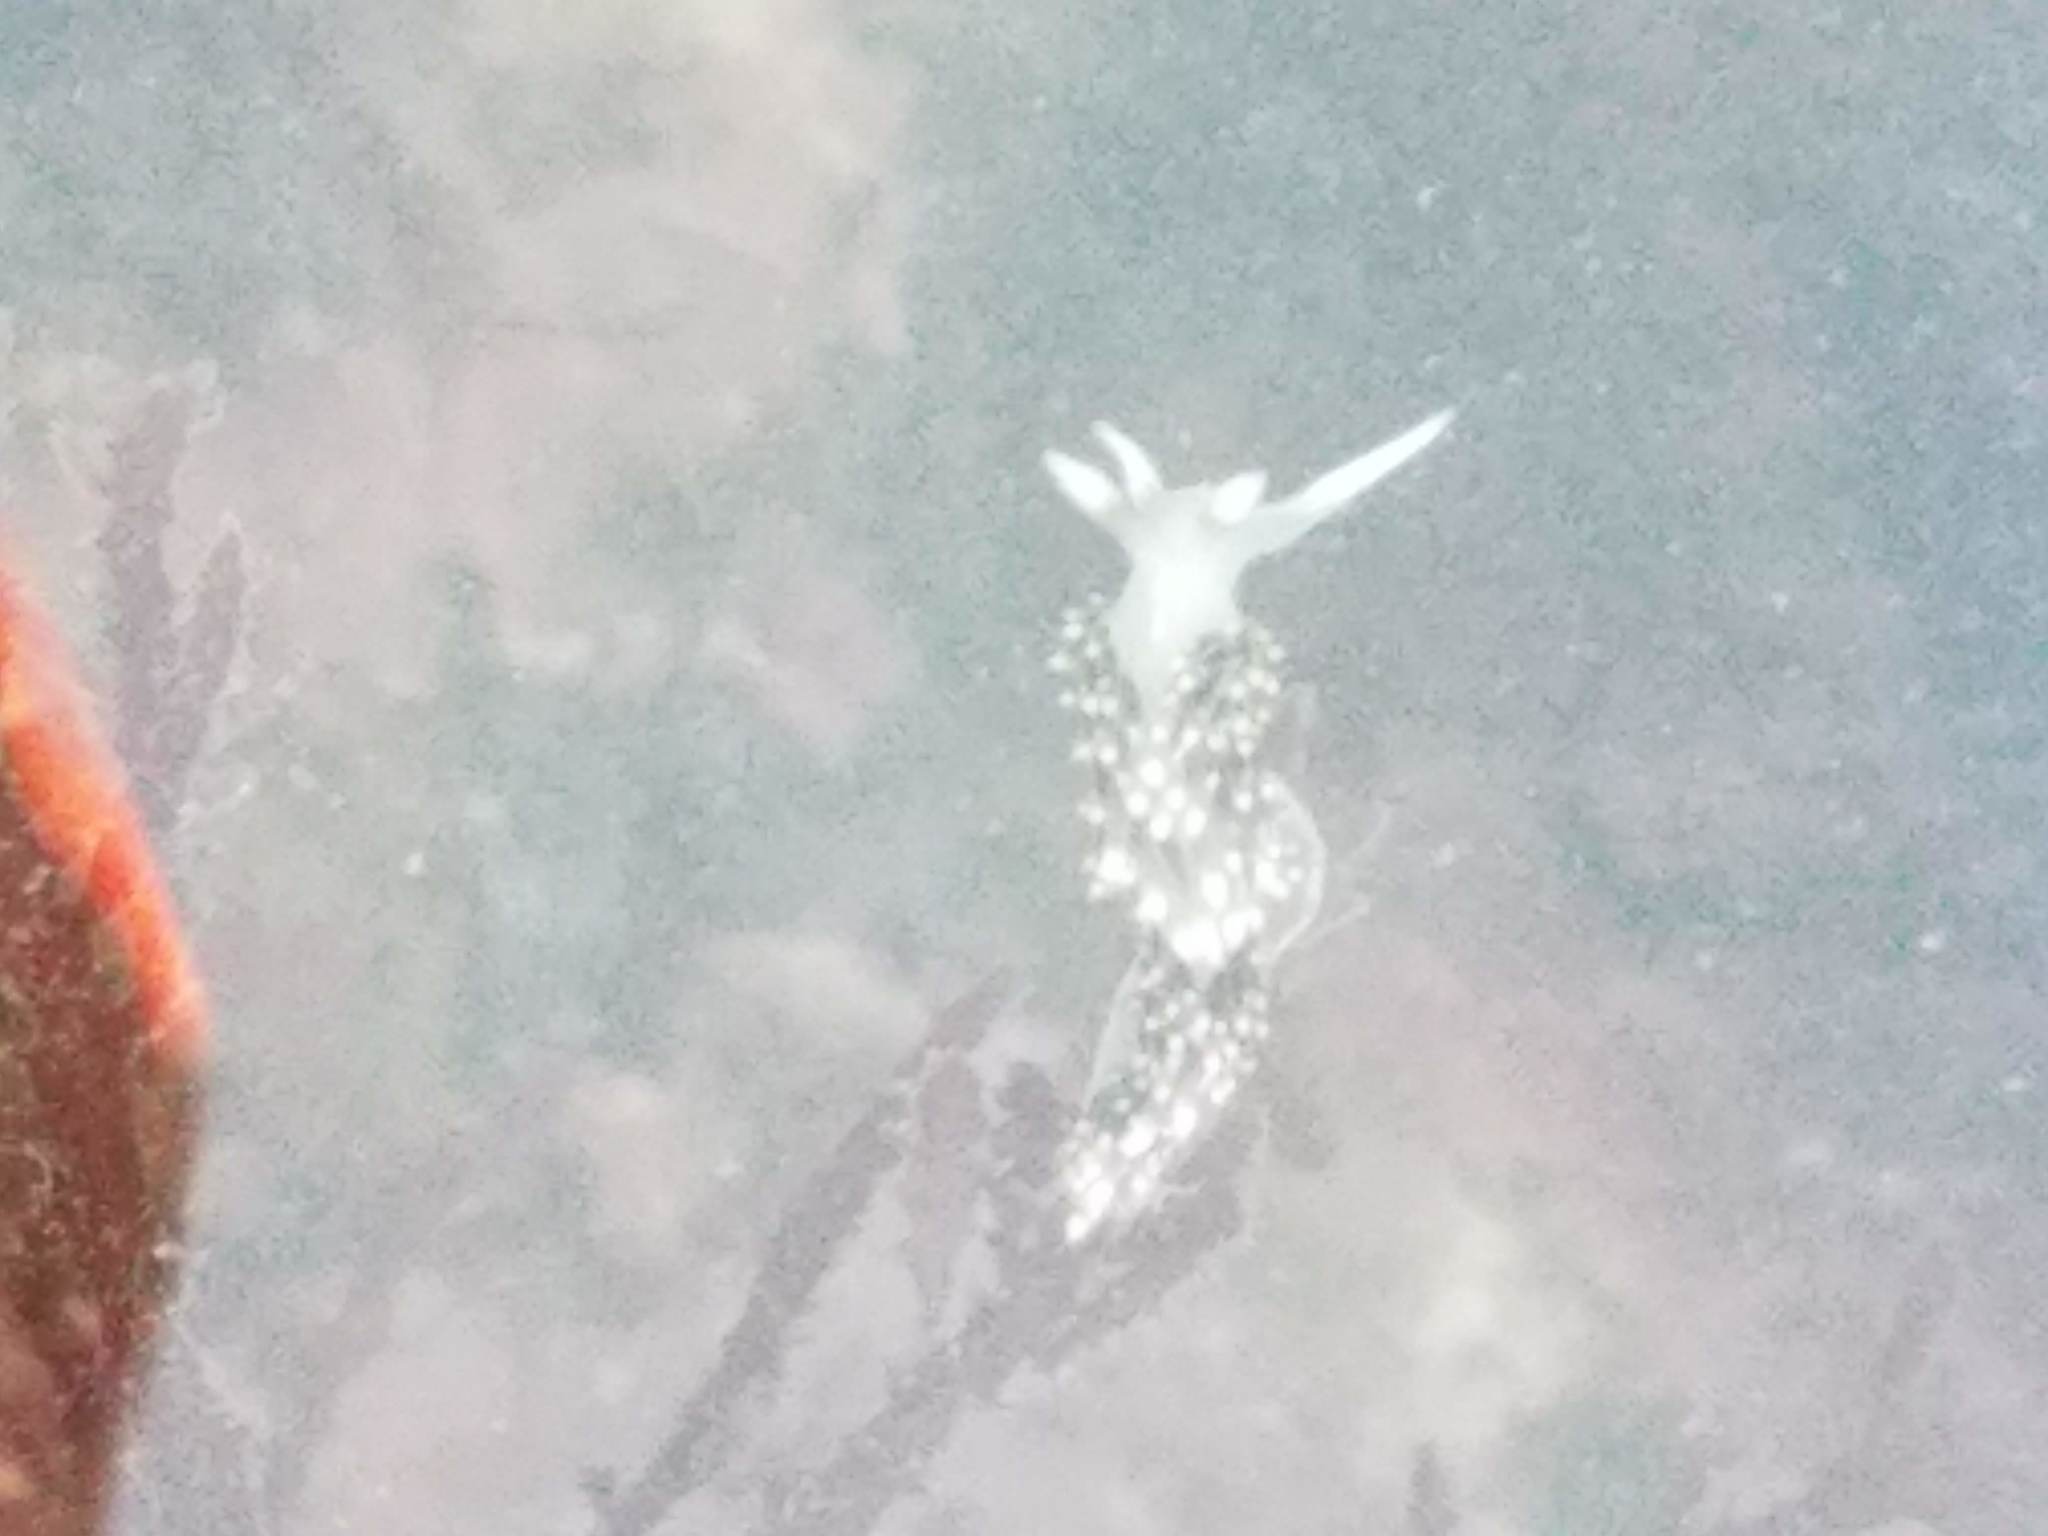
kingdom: Animalia
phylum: Mollusca
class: Gastropoda
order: Nudibranchia
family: Facelinidae
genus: Phidiana
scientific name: Phidiana hiltoni
